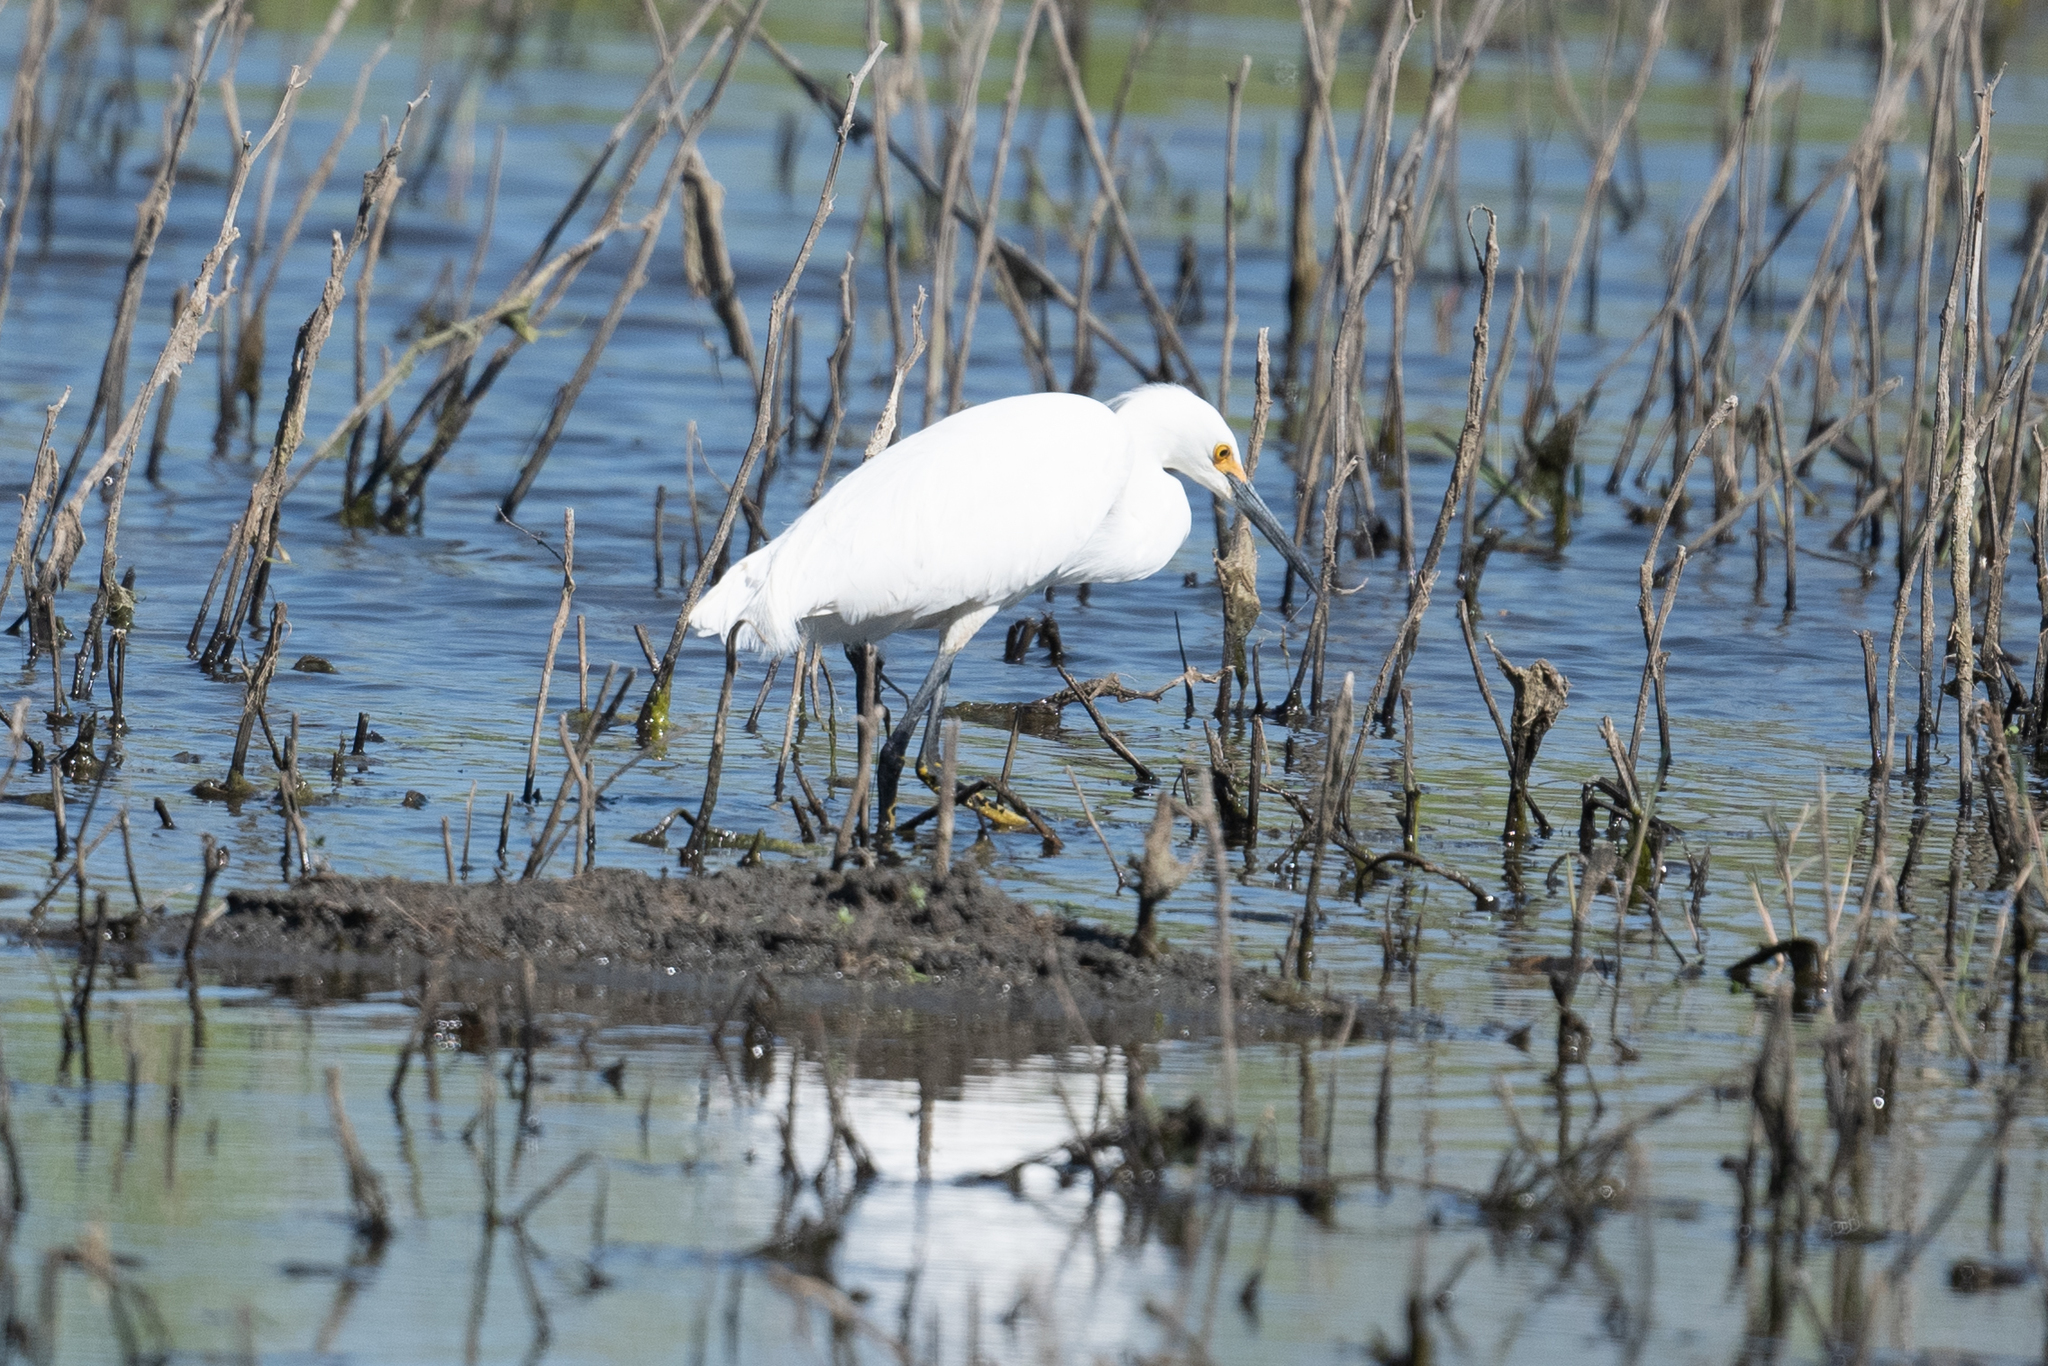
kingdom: Animalia
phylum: Chordata
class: Aves
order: Pelecaniformes
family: Ardeidae
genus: Egretta
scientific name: Egretta thula
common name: Snowy egret
